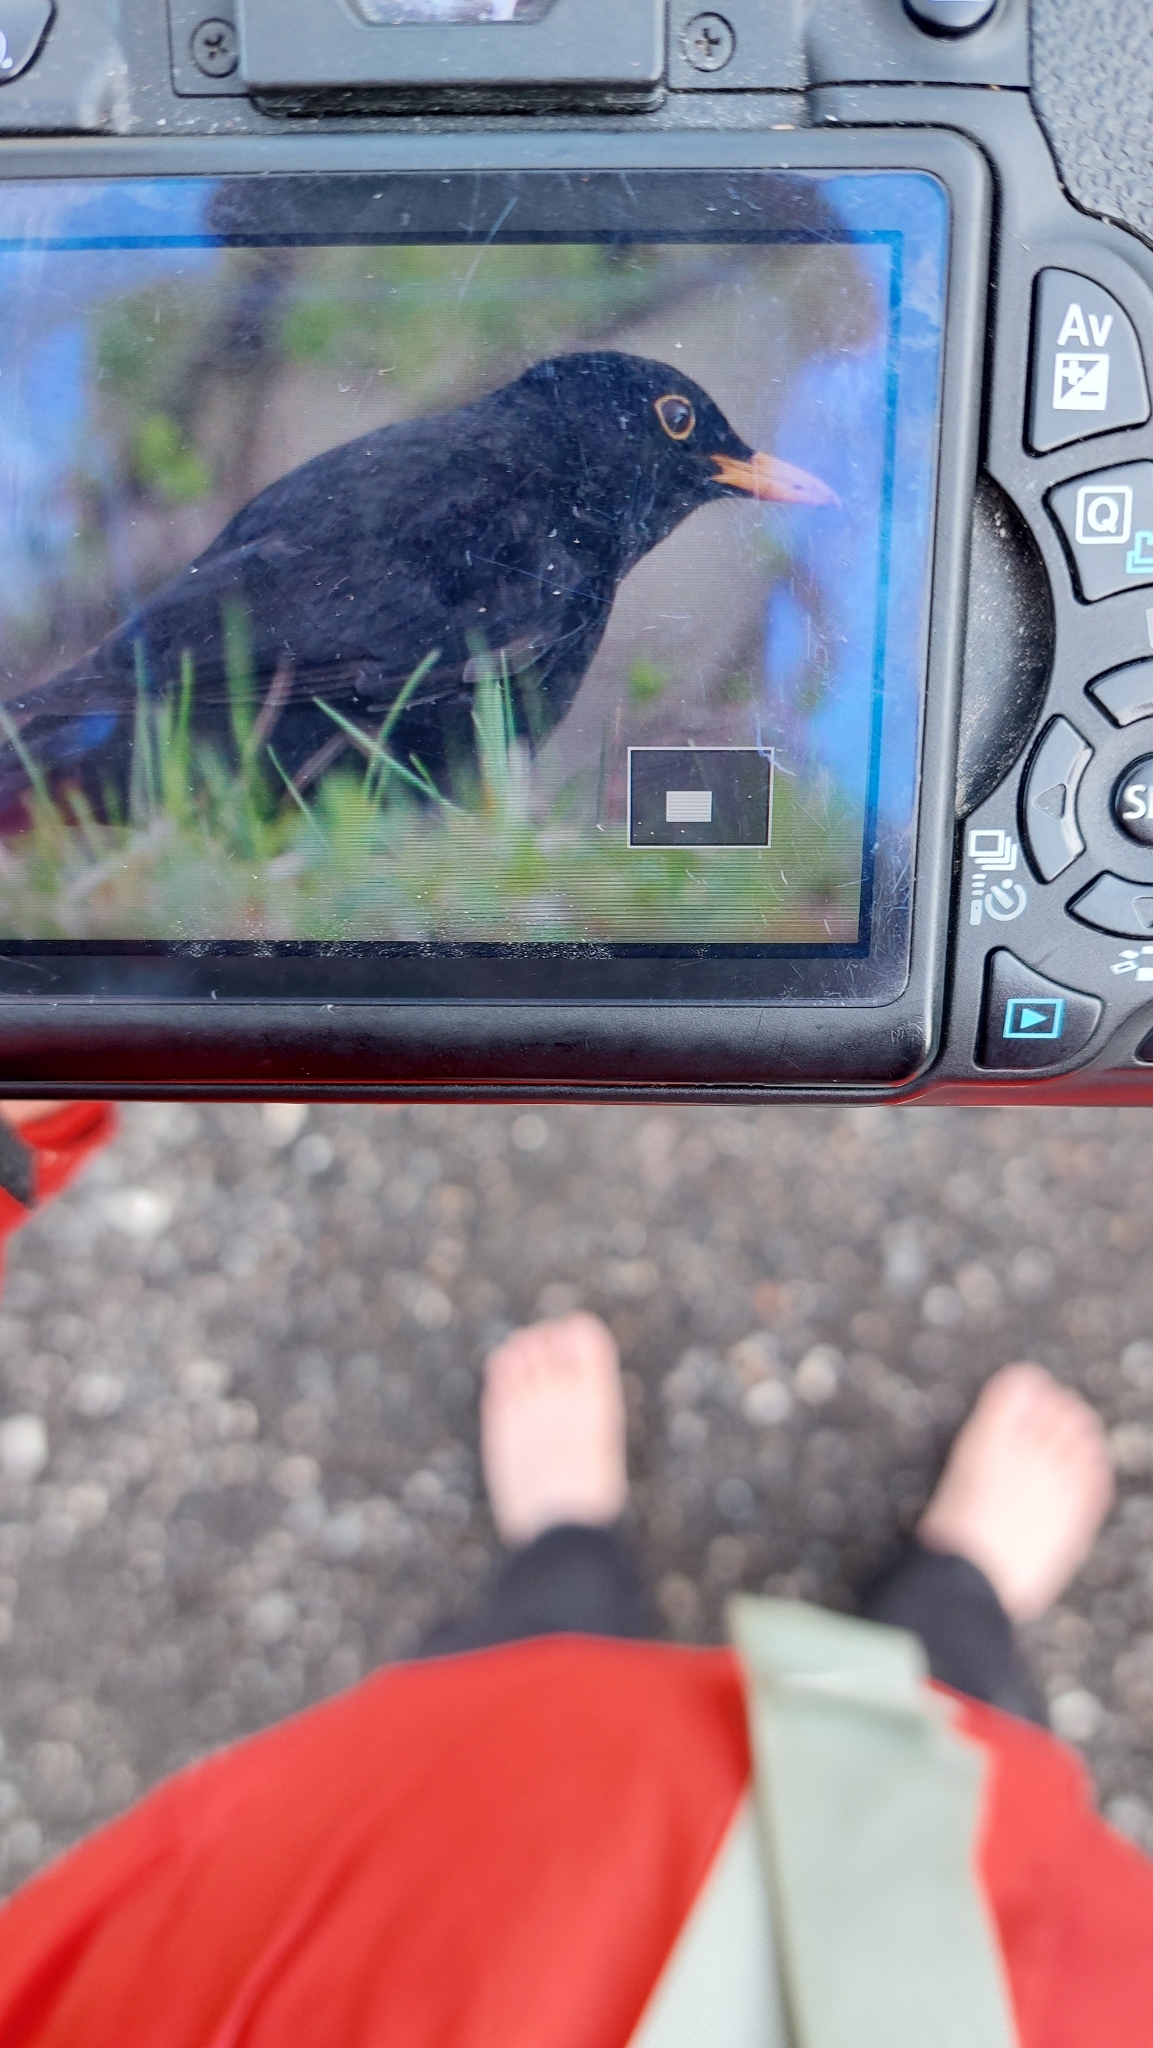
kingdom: Animalia
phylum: Chordata
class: Aves
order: Passeriformes
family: Turdidae
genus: Turdus
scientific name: Turdus merula
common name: Common blackbird
